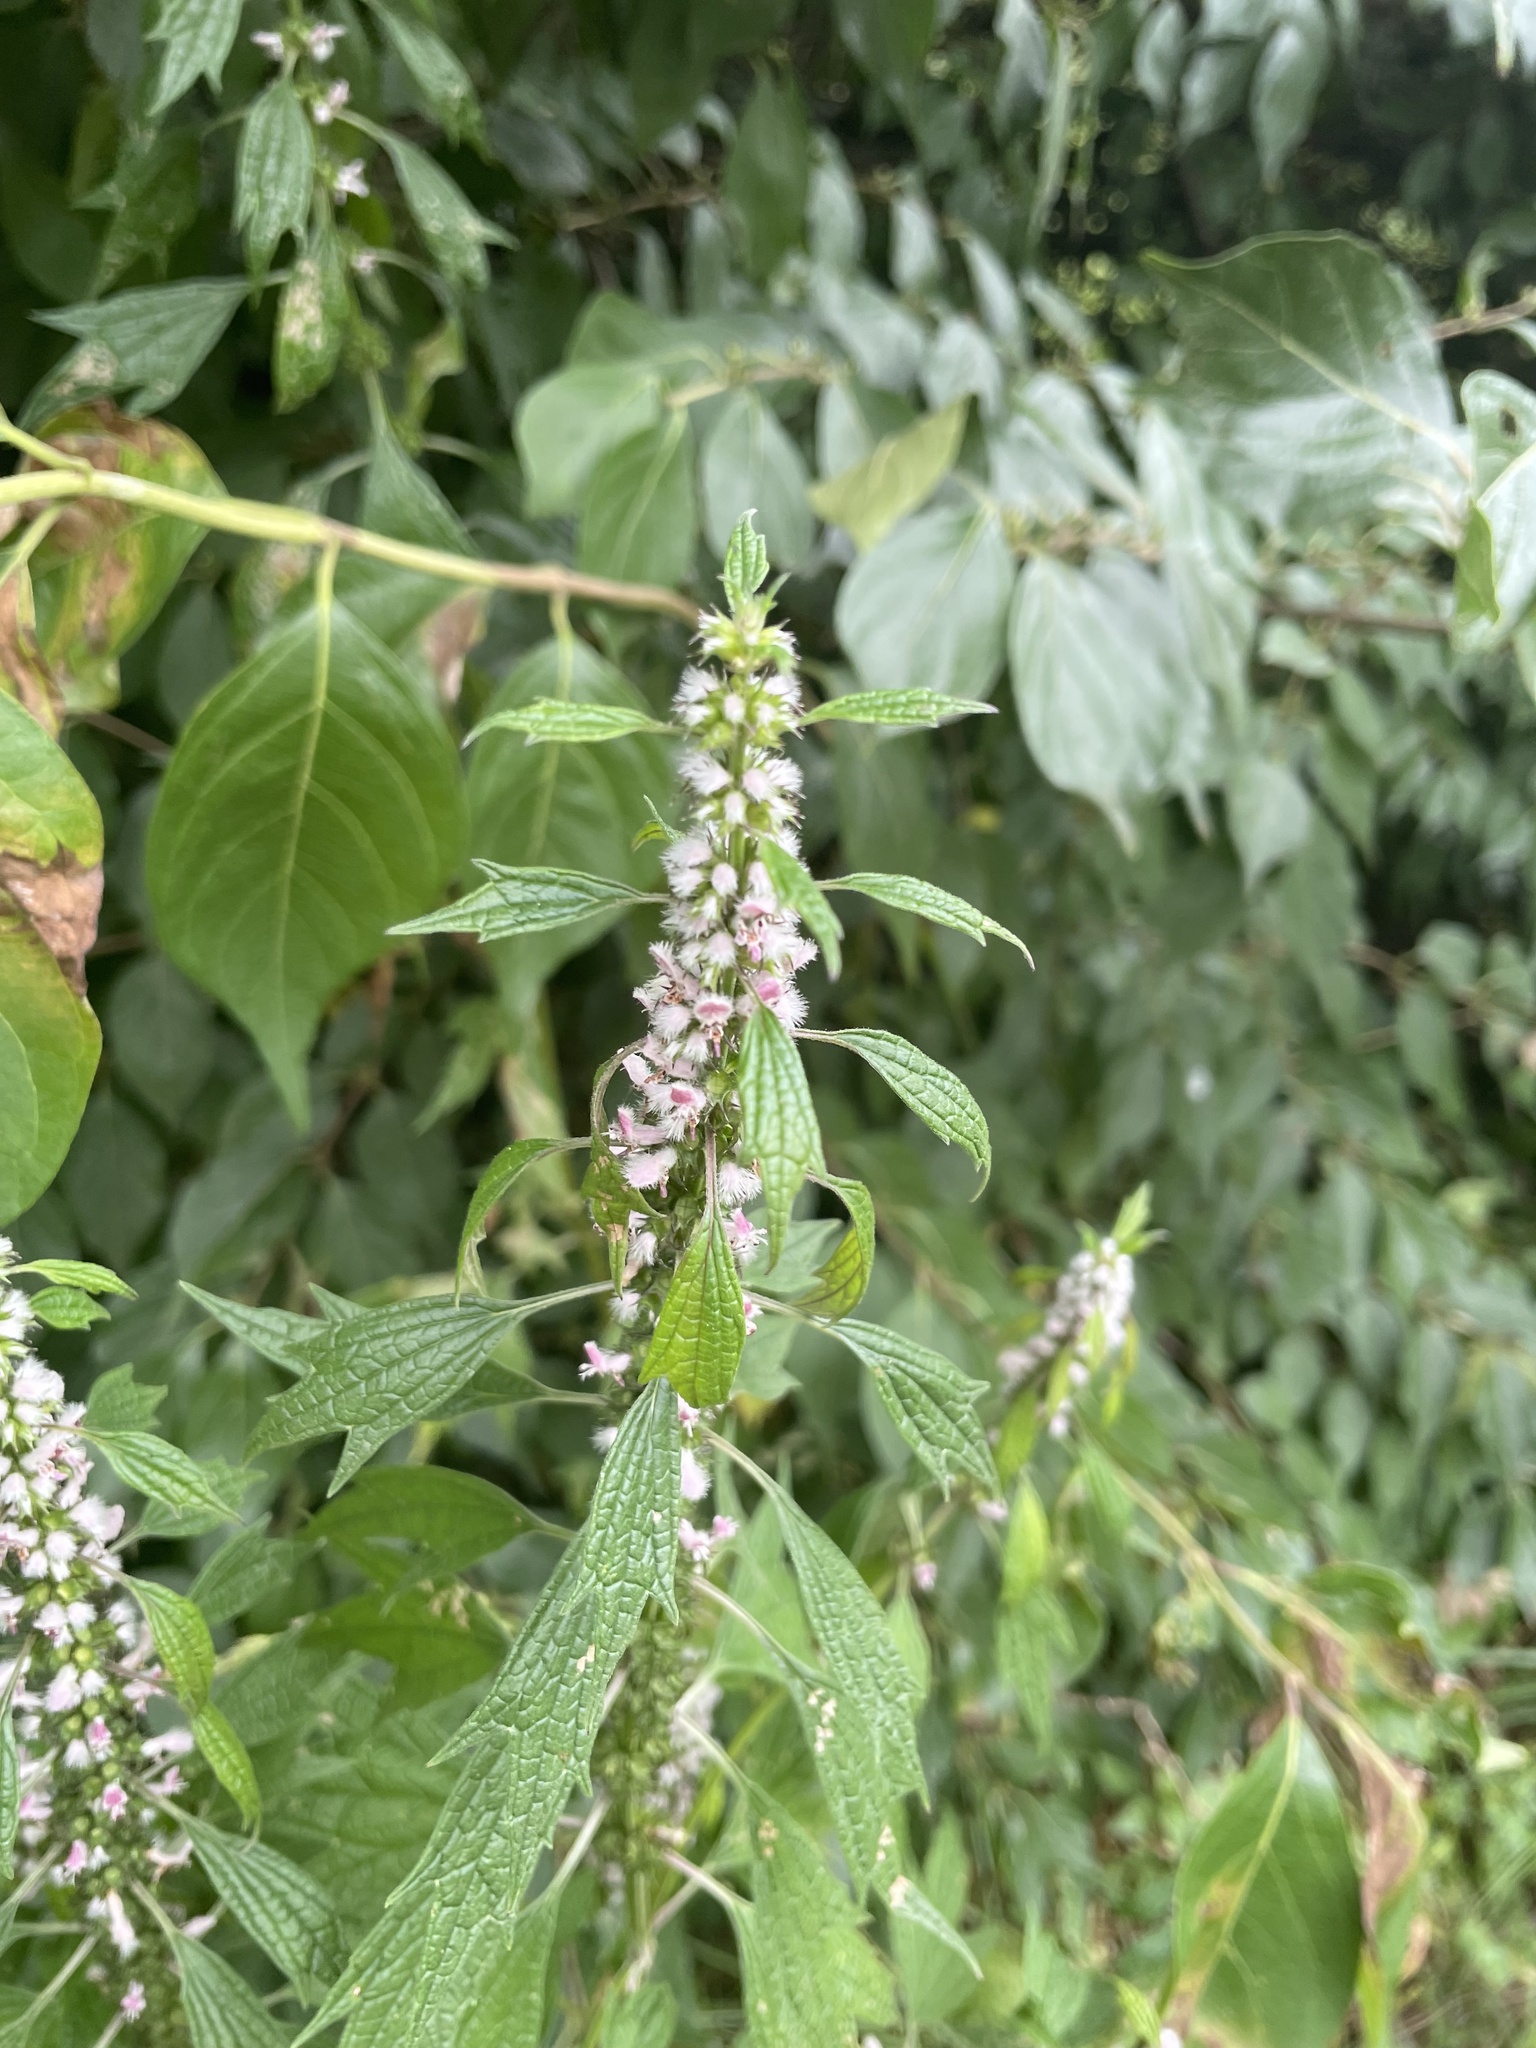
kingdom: Plantae
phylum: Tracheophyta
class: Magnoliopsida
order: Lamiales
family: Lamiaceae
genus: Leonurus
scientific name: Leonurus cardiaca
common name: Motherwort
